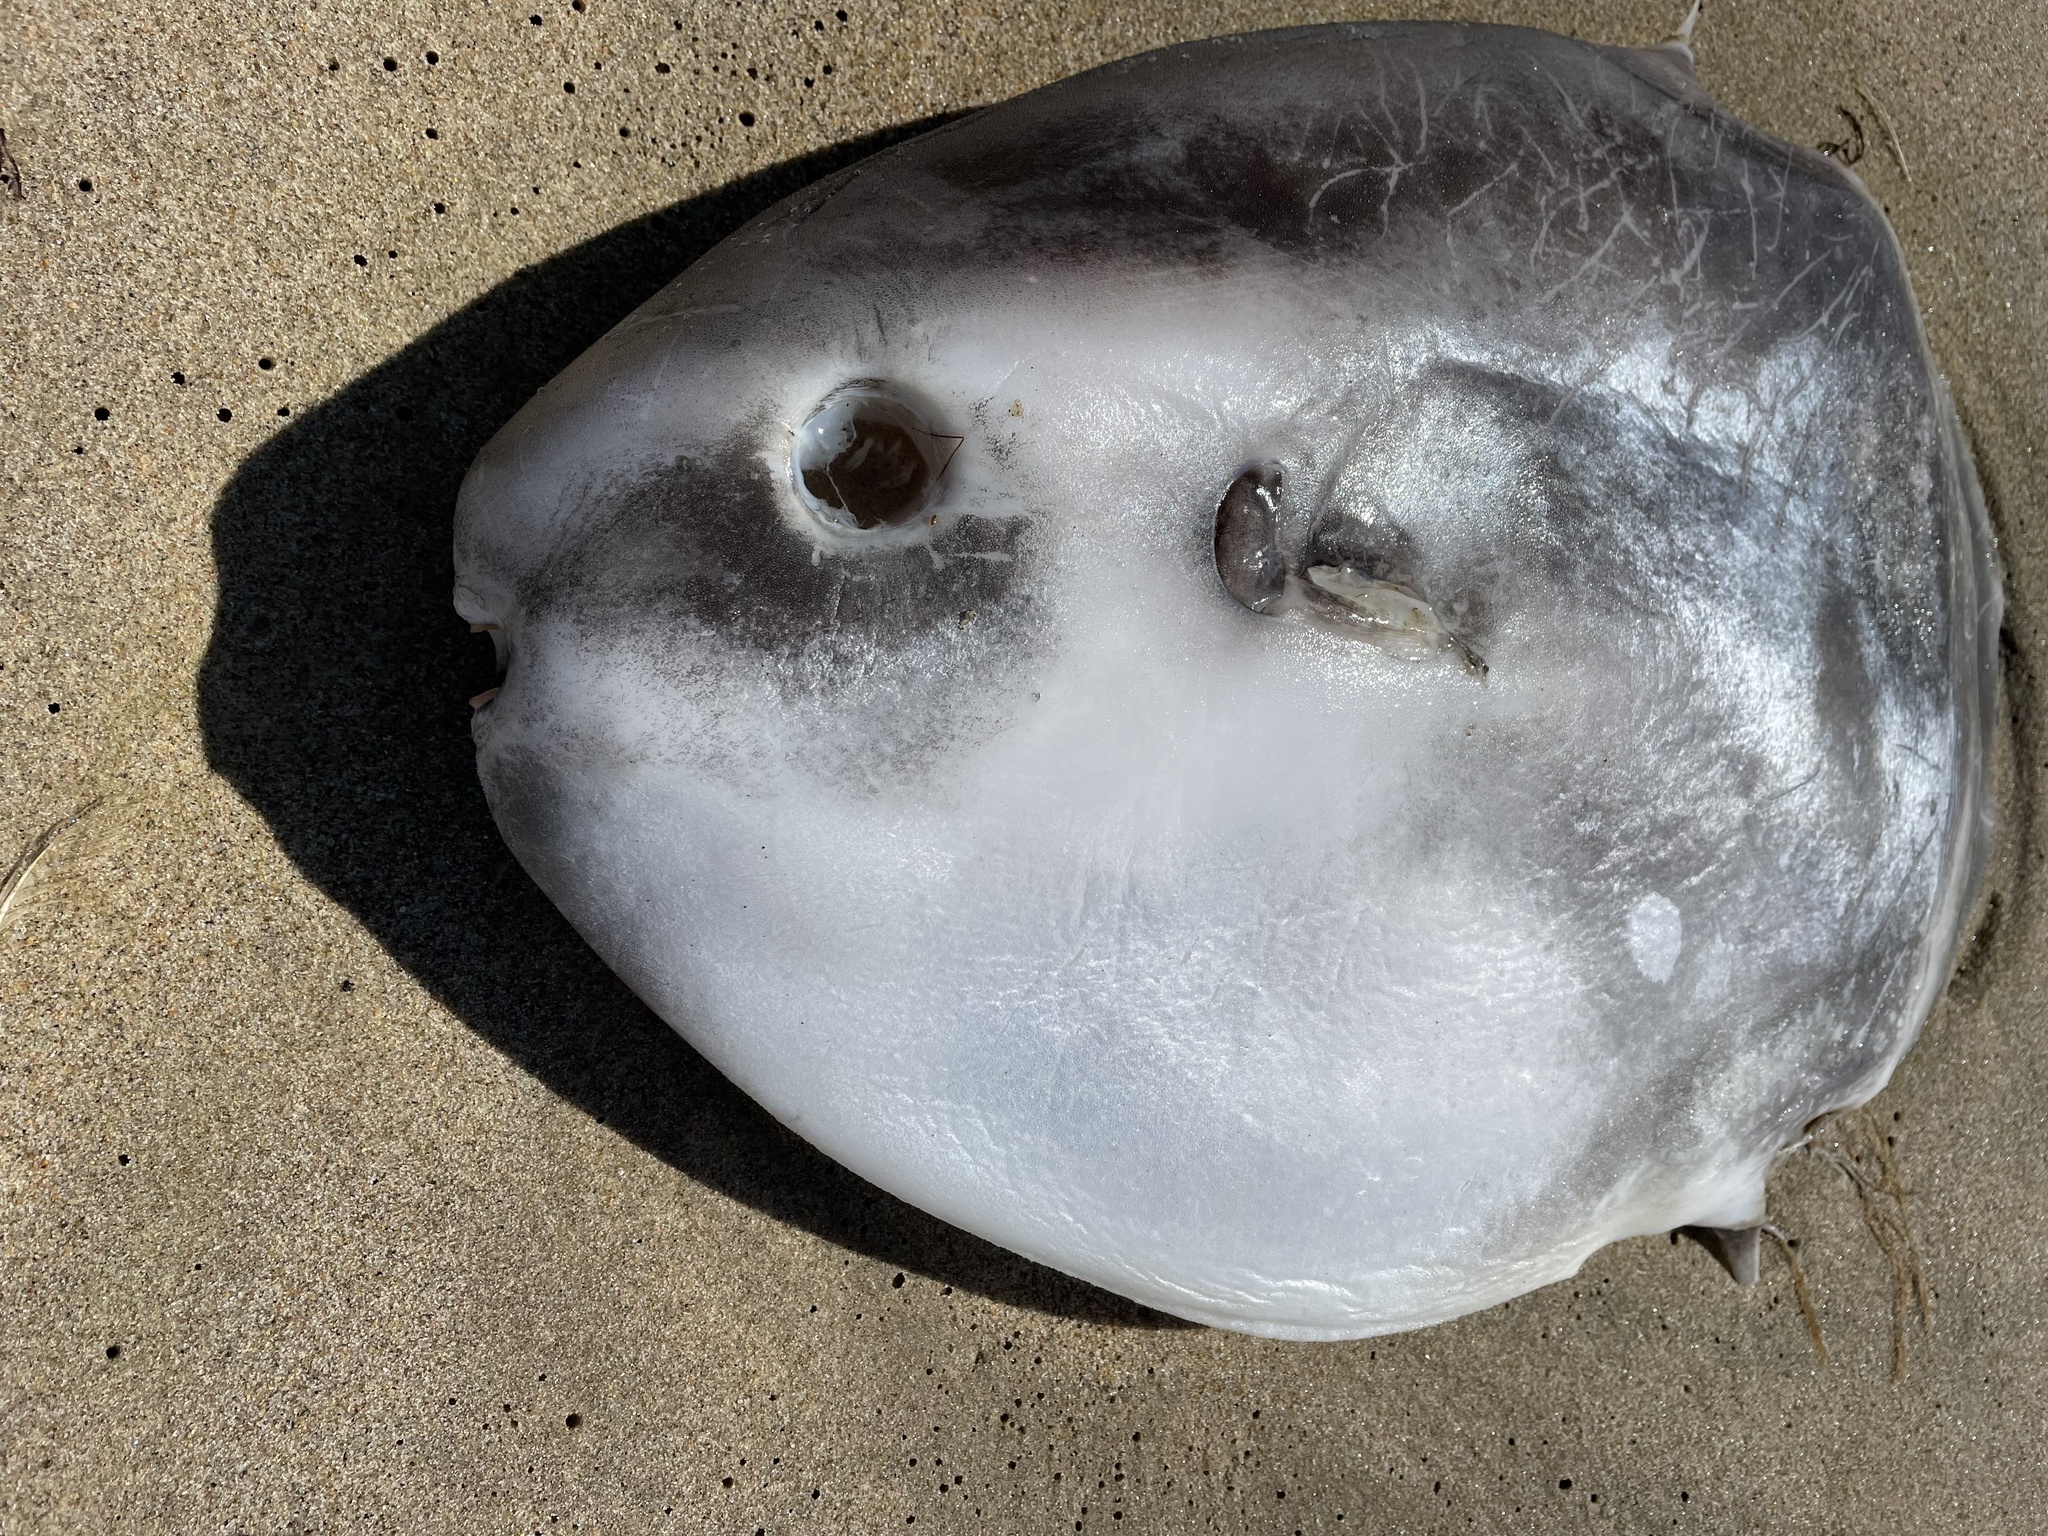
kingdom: Animalia
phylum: Chordata
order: Tetraodontiformes
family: Molidae
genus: Mola
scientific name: Mola mola
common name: Ocean sunfish
